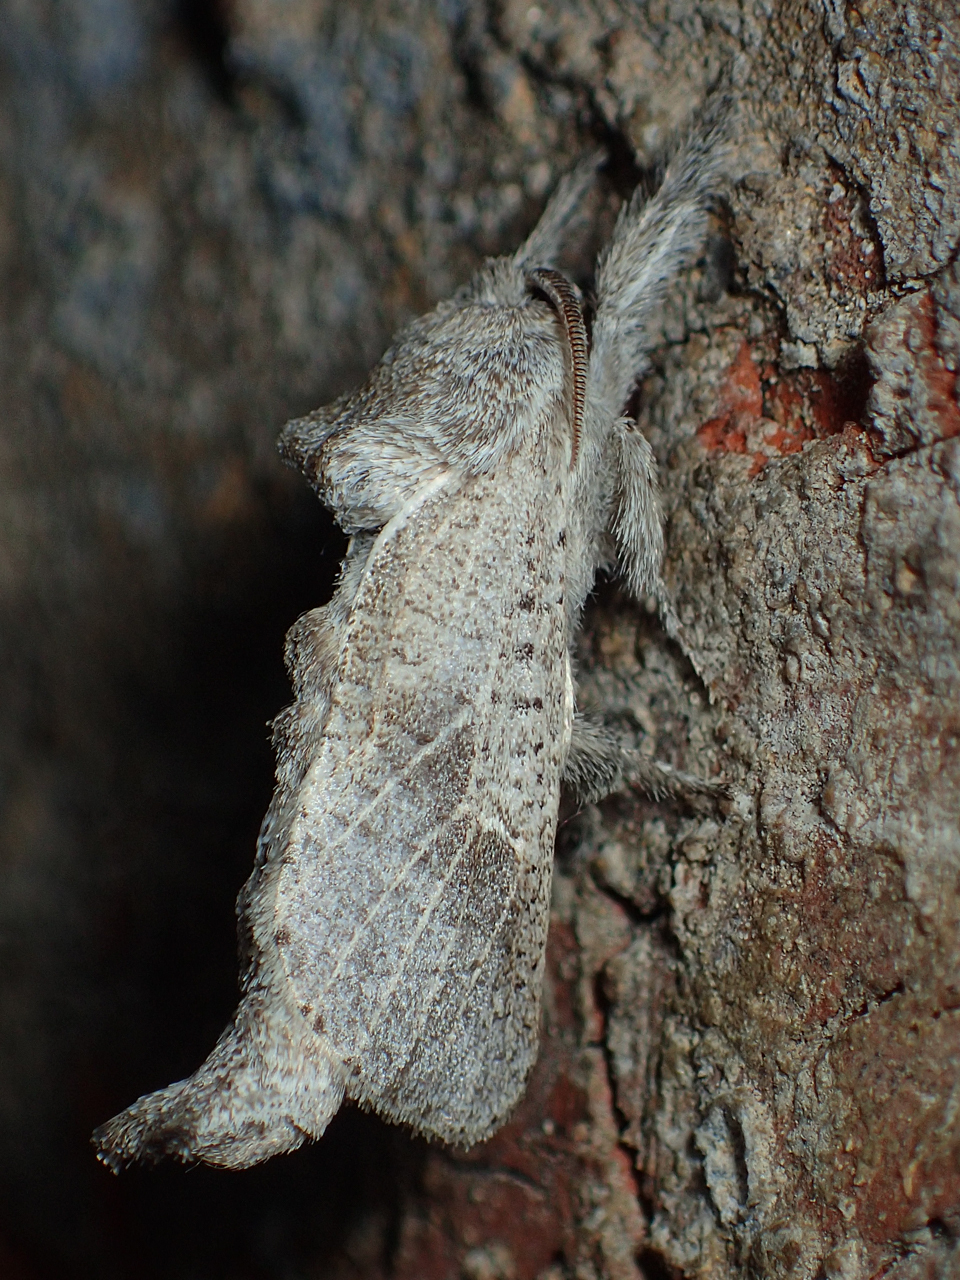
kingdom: Animalia
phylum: Arthropoda
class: Insecta
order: Lepidoptera
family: Cossidae
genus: Givira
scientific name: Givira anna
